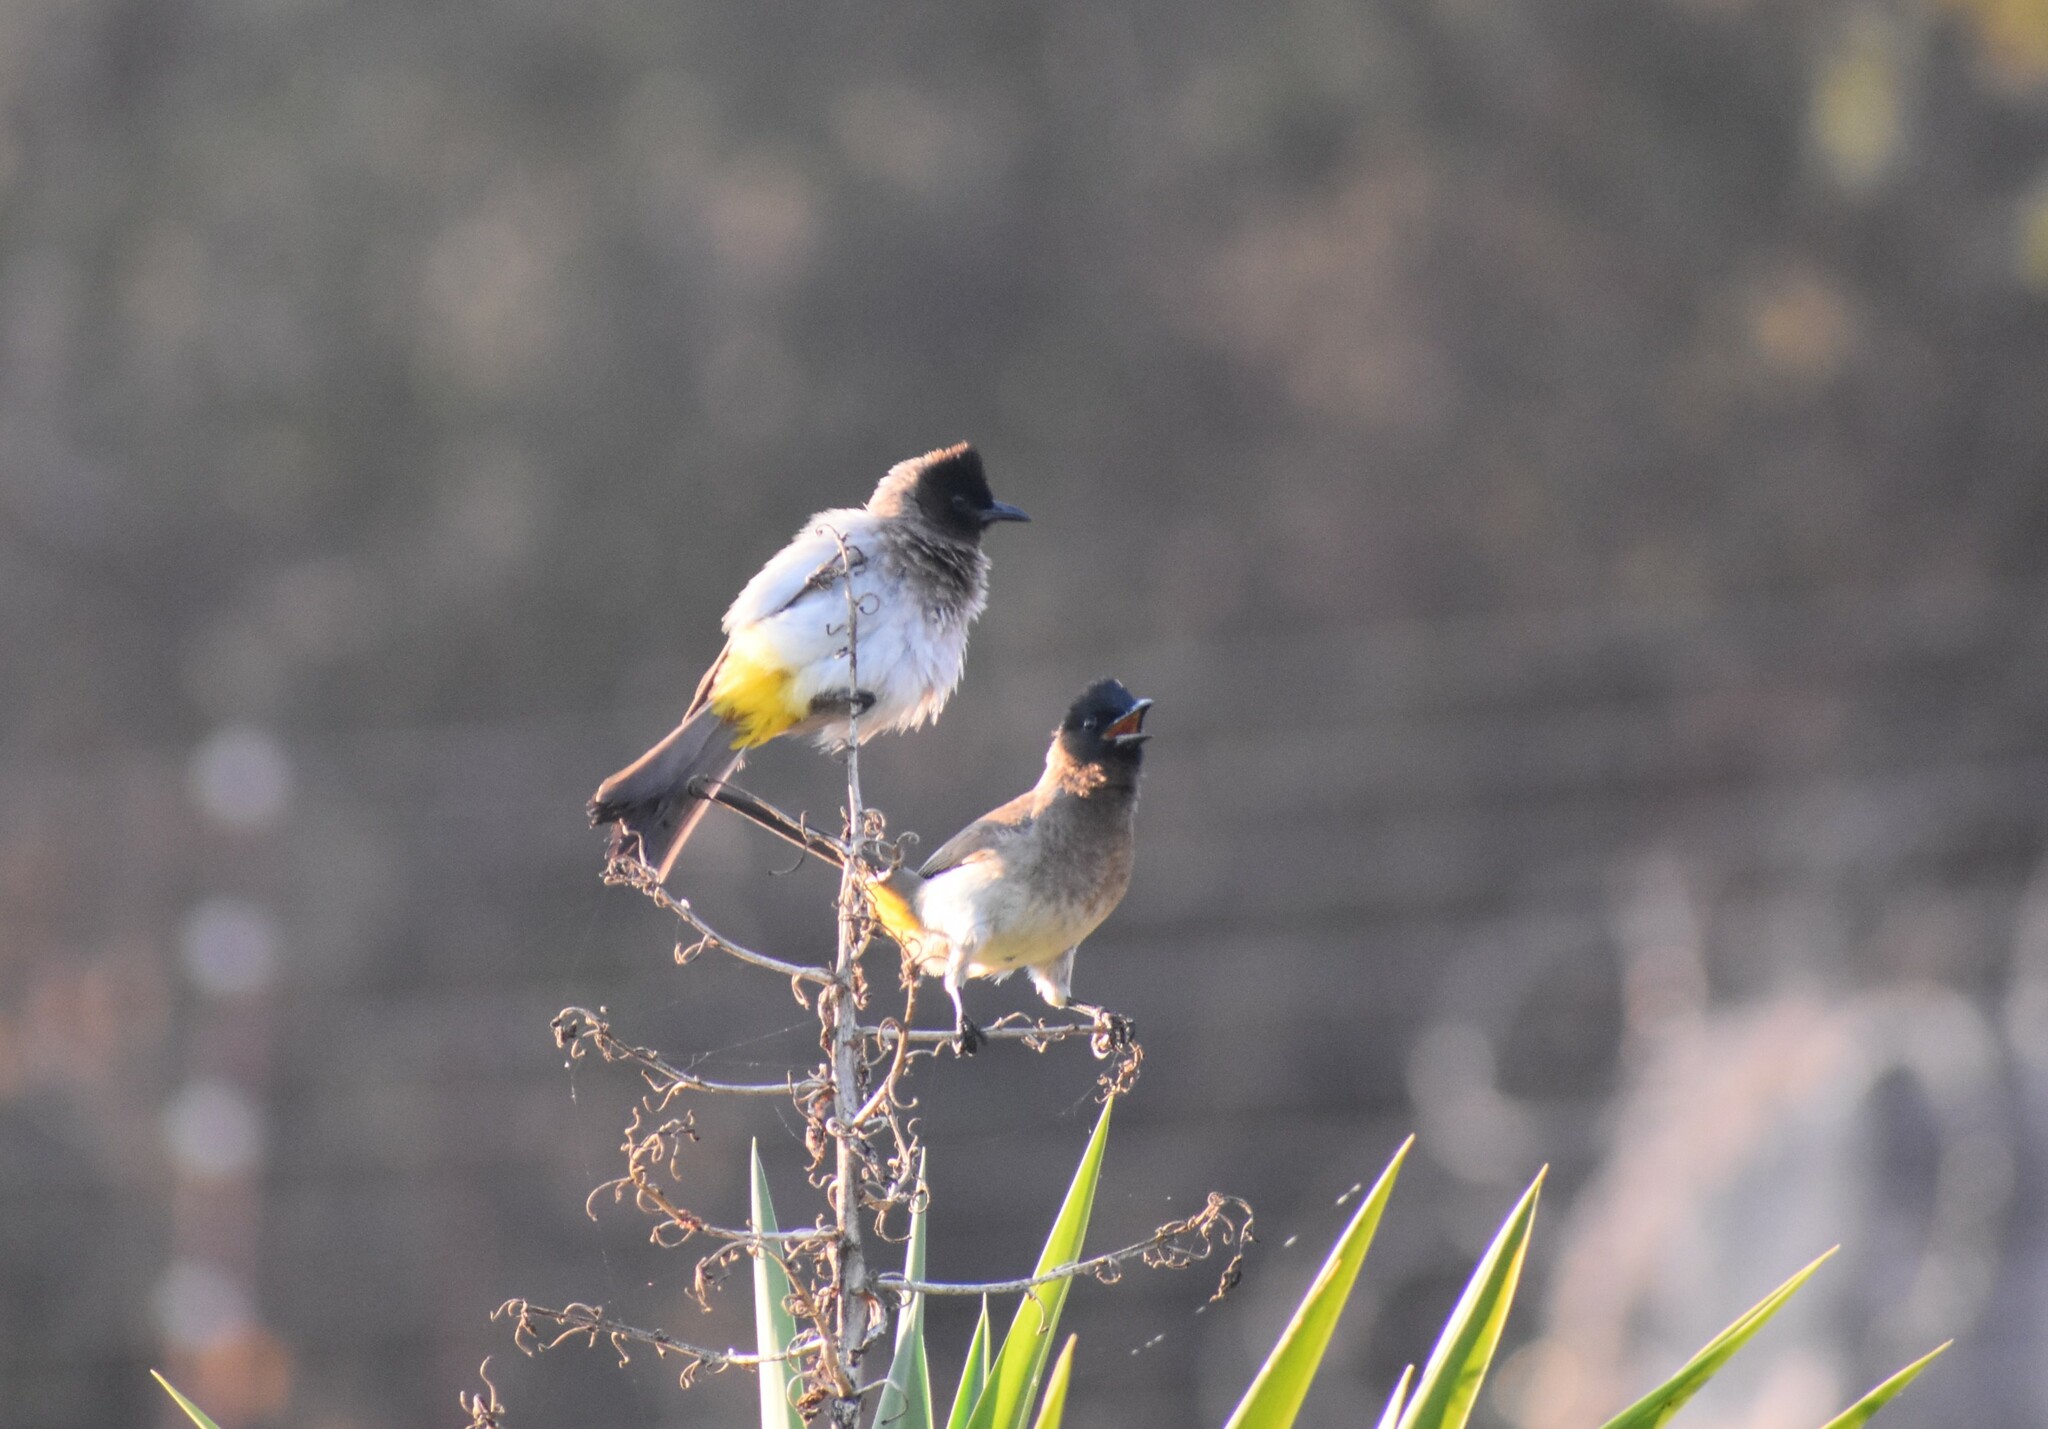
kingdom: Animalia
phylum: Chordata
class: Aves
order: Passeriformes
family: Pycnonotidae
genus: Pycnonotus
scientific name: Pycnonotus barbatus
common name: Common bulbul
